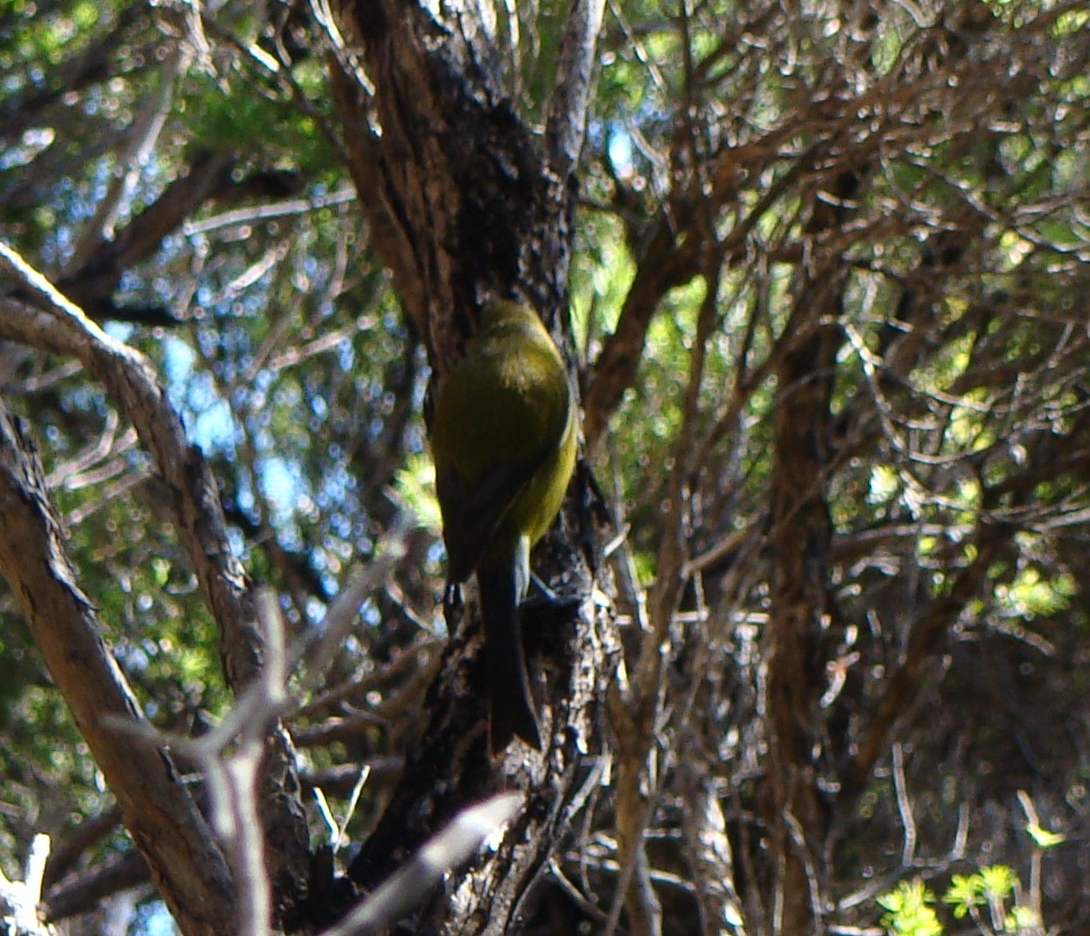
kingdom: Animalia
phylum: Chordata
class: Aves
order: Passeriformes
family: Meliphagidae
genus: Anthornis
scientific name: Anthornis melanura
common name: New zealand bellbird
